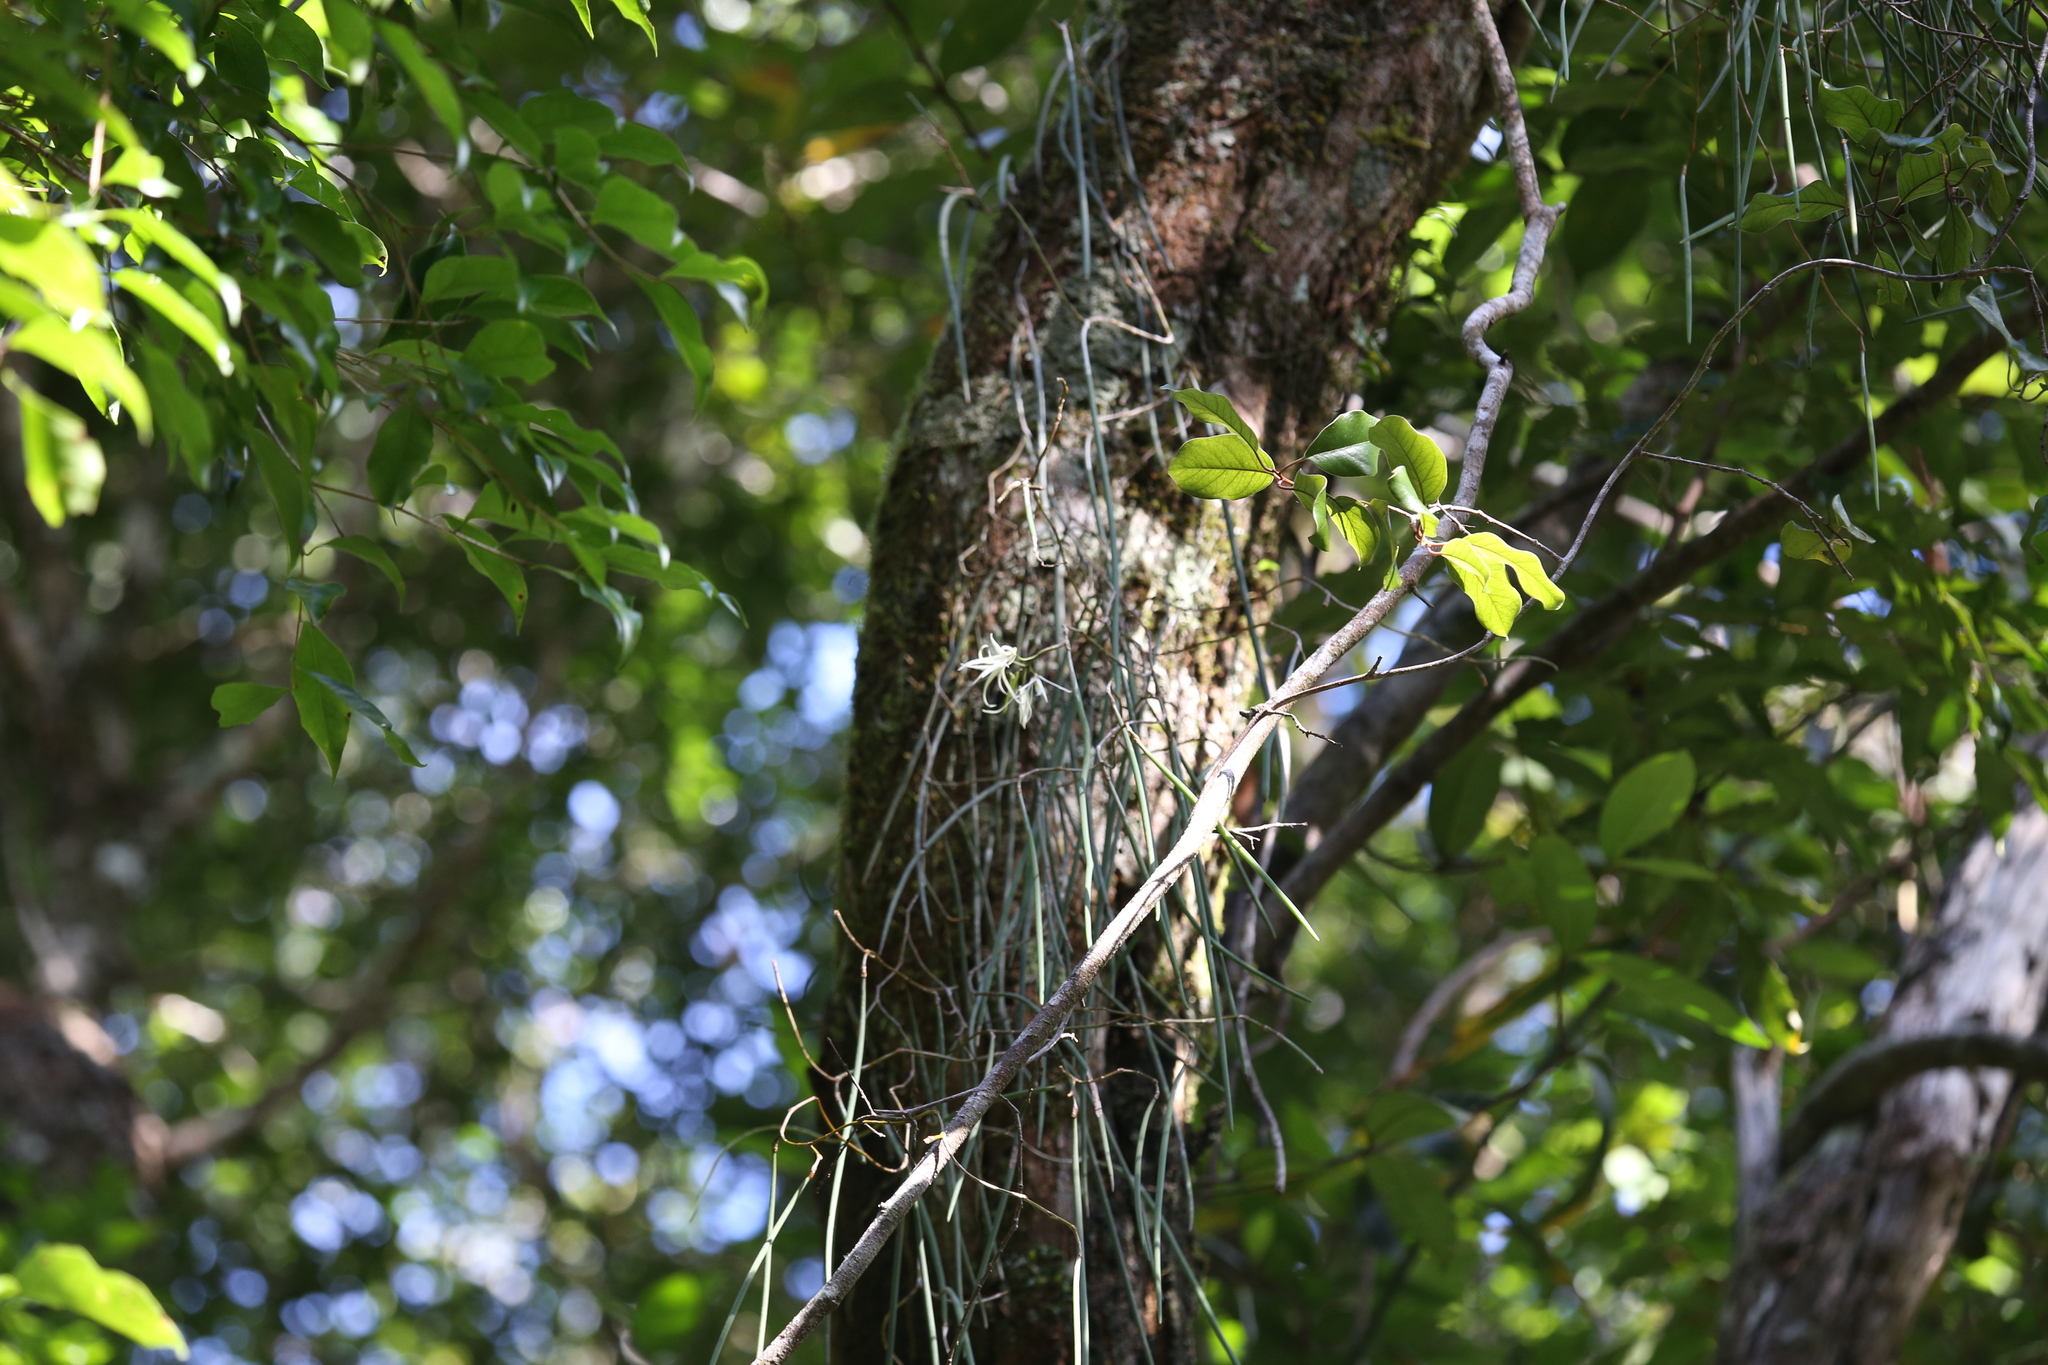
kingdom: Plantae
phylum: Tracheophyta
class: Liliopsida
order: Asparagales
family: Orchidaceae
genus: Dendrobium
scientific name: Dendrobium teretifolium
